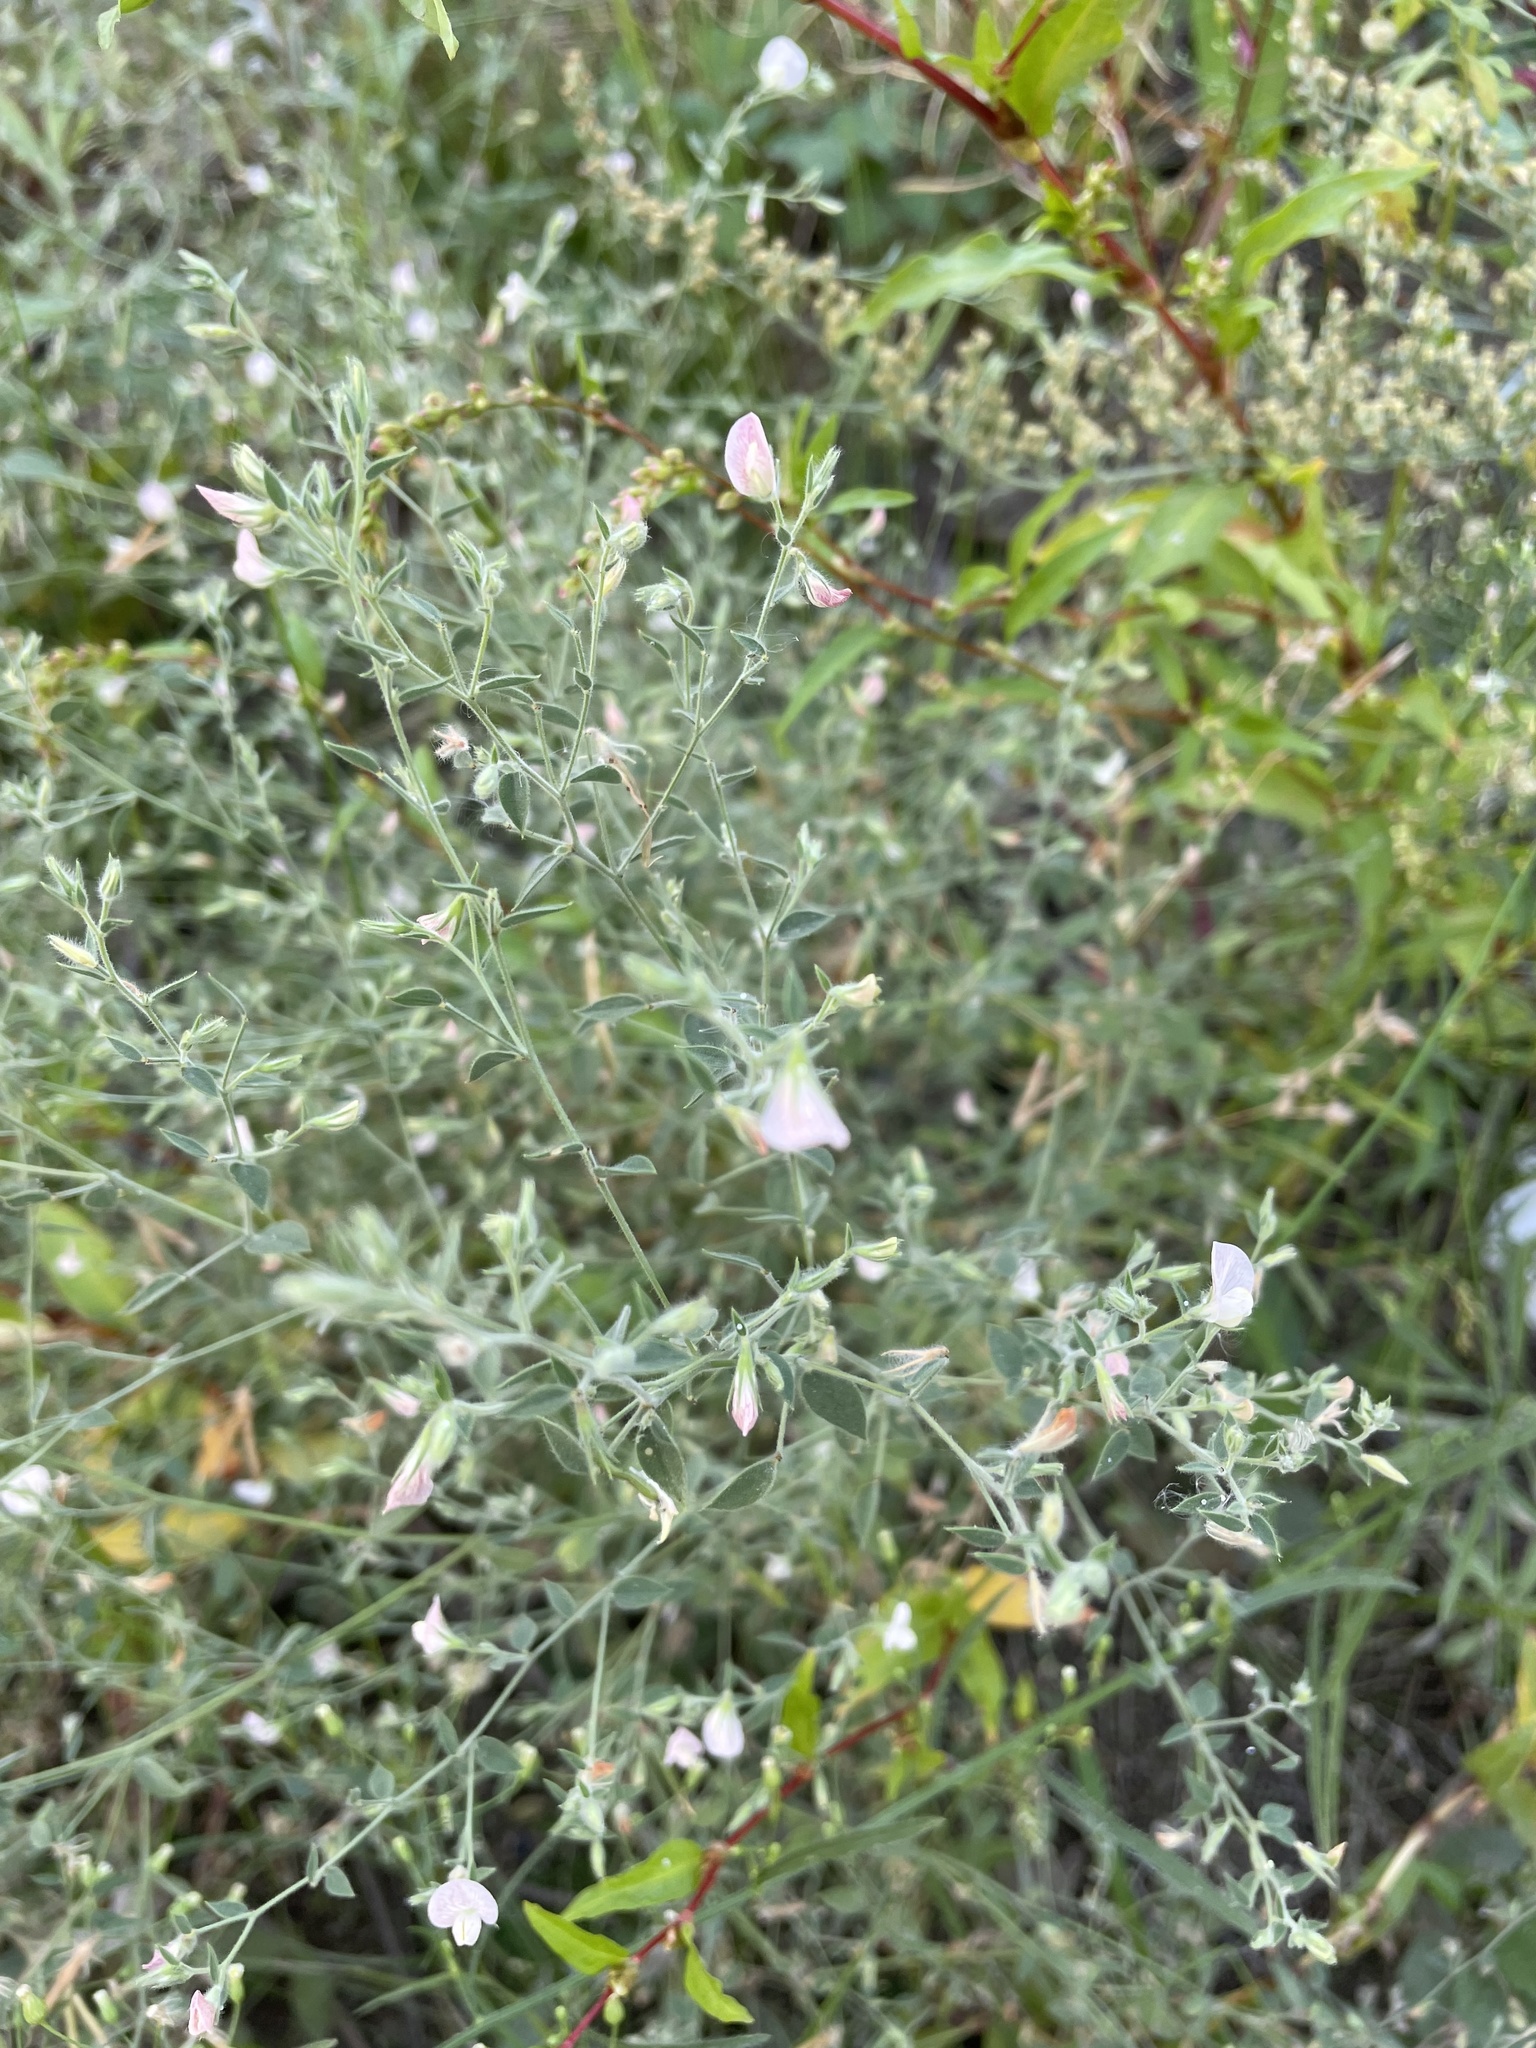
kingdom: Plantae
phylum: Tracheophyta
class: Magnoliopsida
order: Fabales
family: Fabaceae
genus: Acmispon
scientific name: Acmispon americanus
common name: American bird's-foot trefoil
